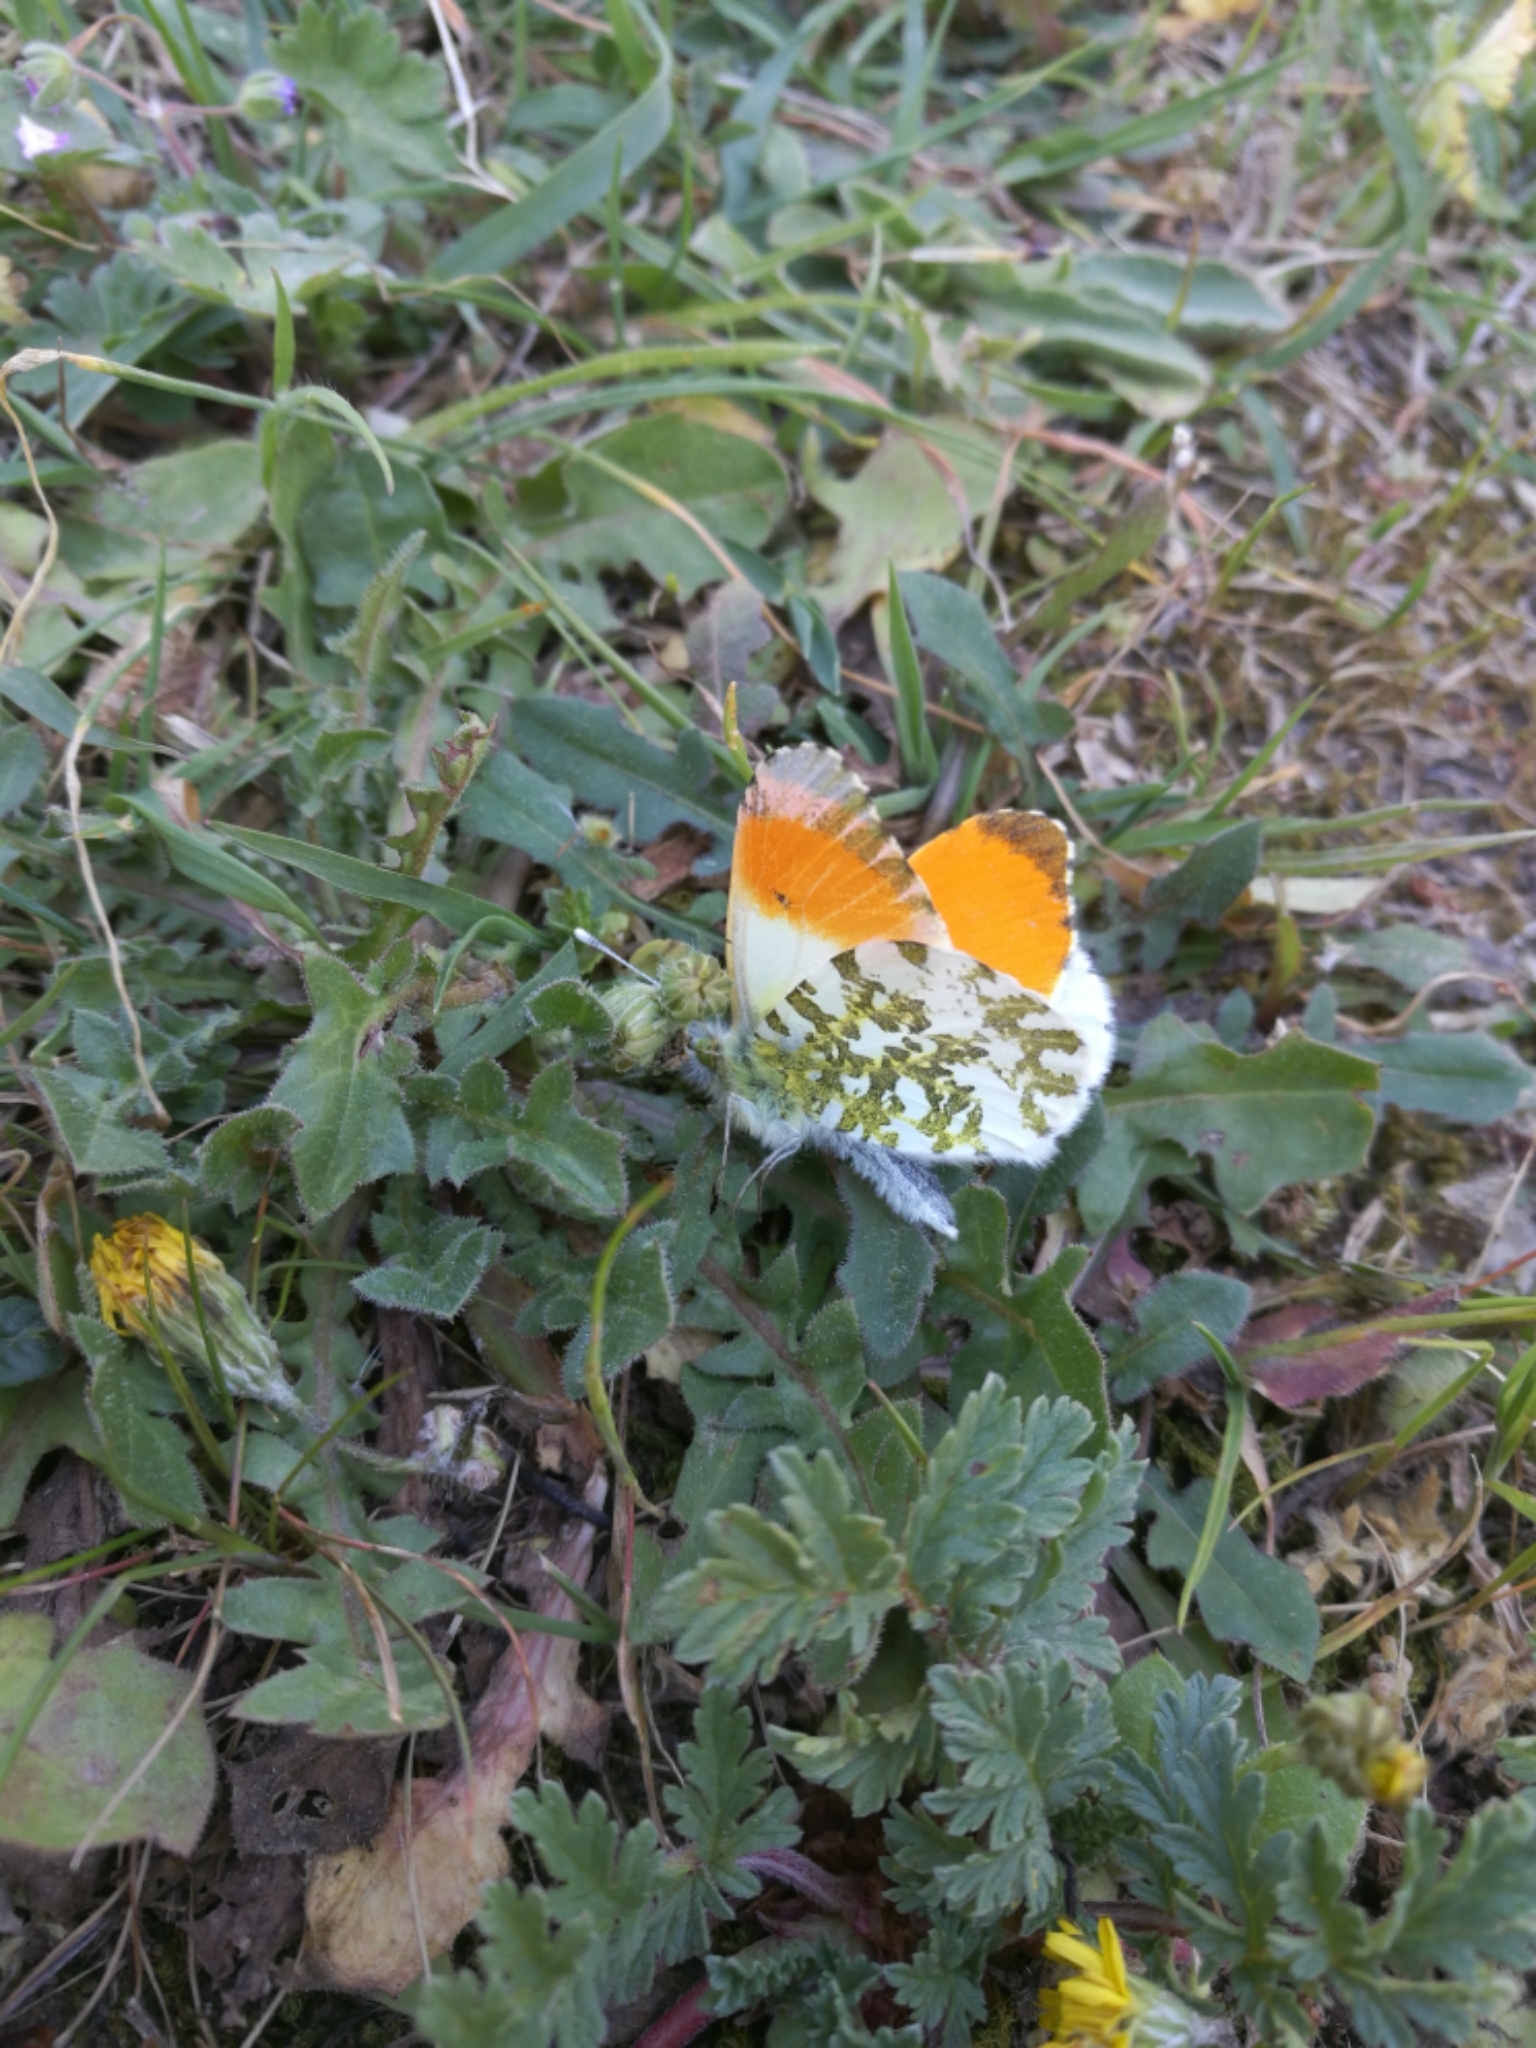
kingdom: Animalia
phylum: Arthropoda
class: Insecta
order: Lepidoptera
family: Pieridae
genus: Anthocharis
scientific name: Anthocharis cardamines
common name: Orange-tip
